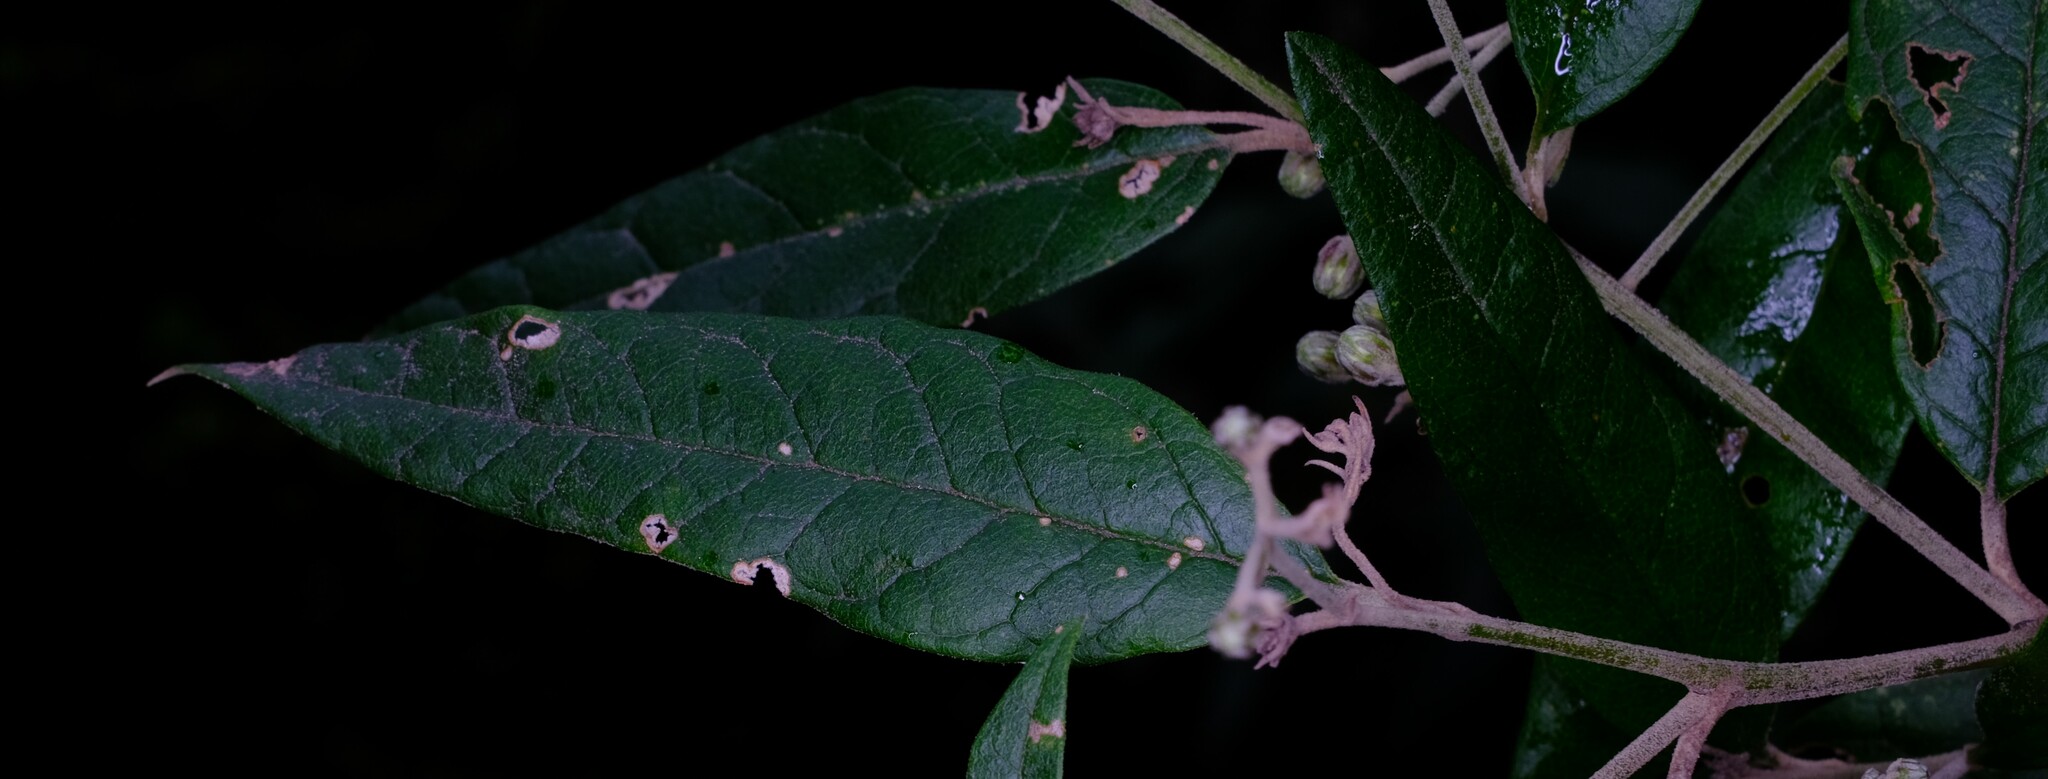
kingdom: Plantae
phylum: Tracheophyta
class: Magnoliopsida
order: Asterales
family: Asteraceae
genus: Olearia
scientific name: Olearia lirata
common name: Dusty daisybush
